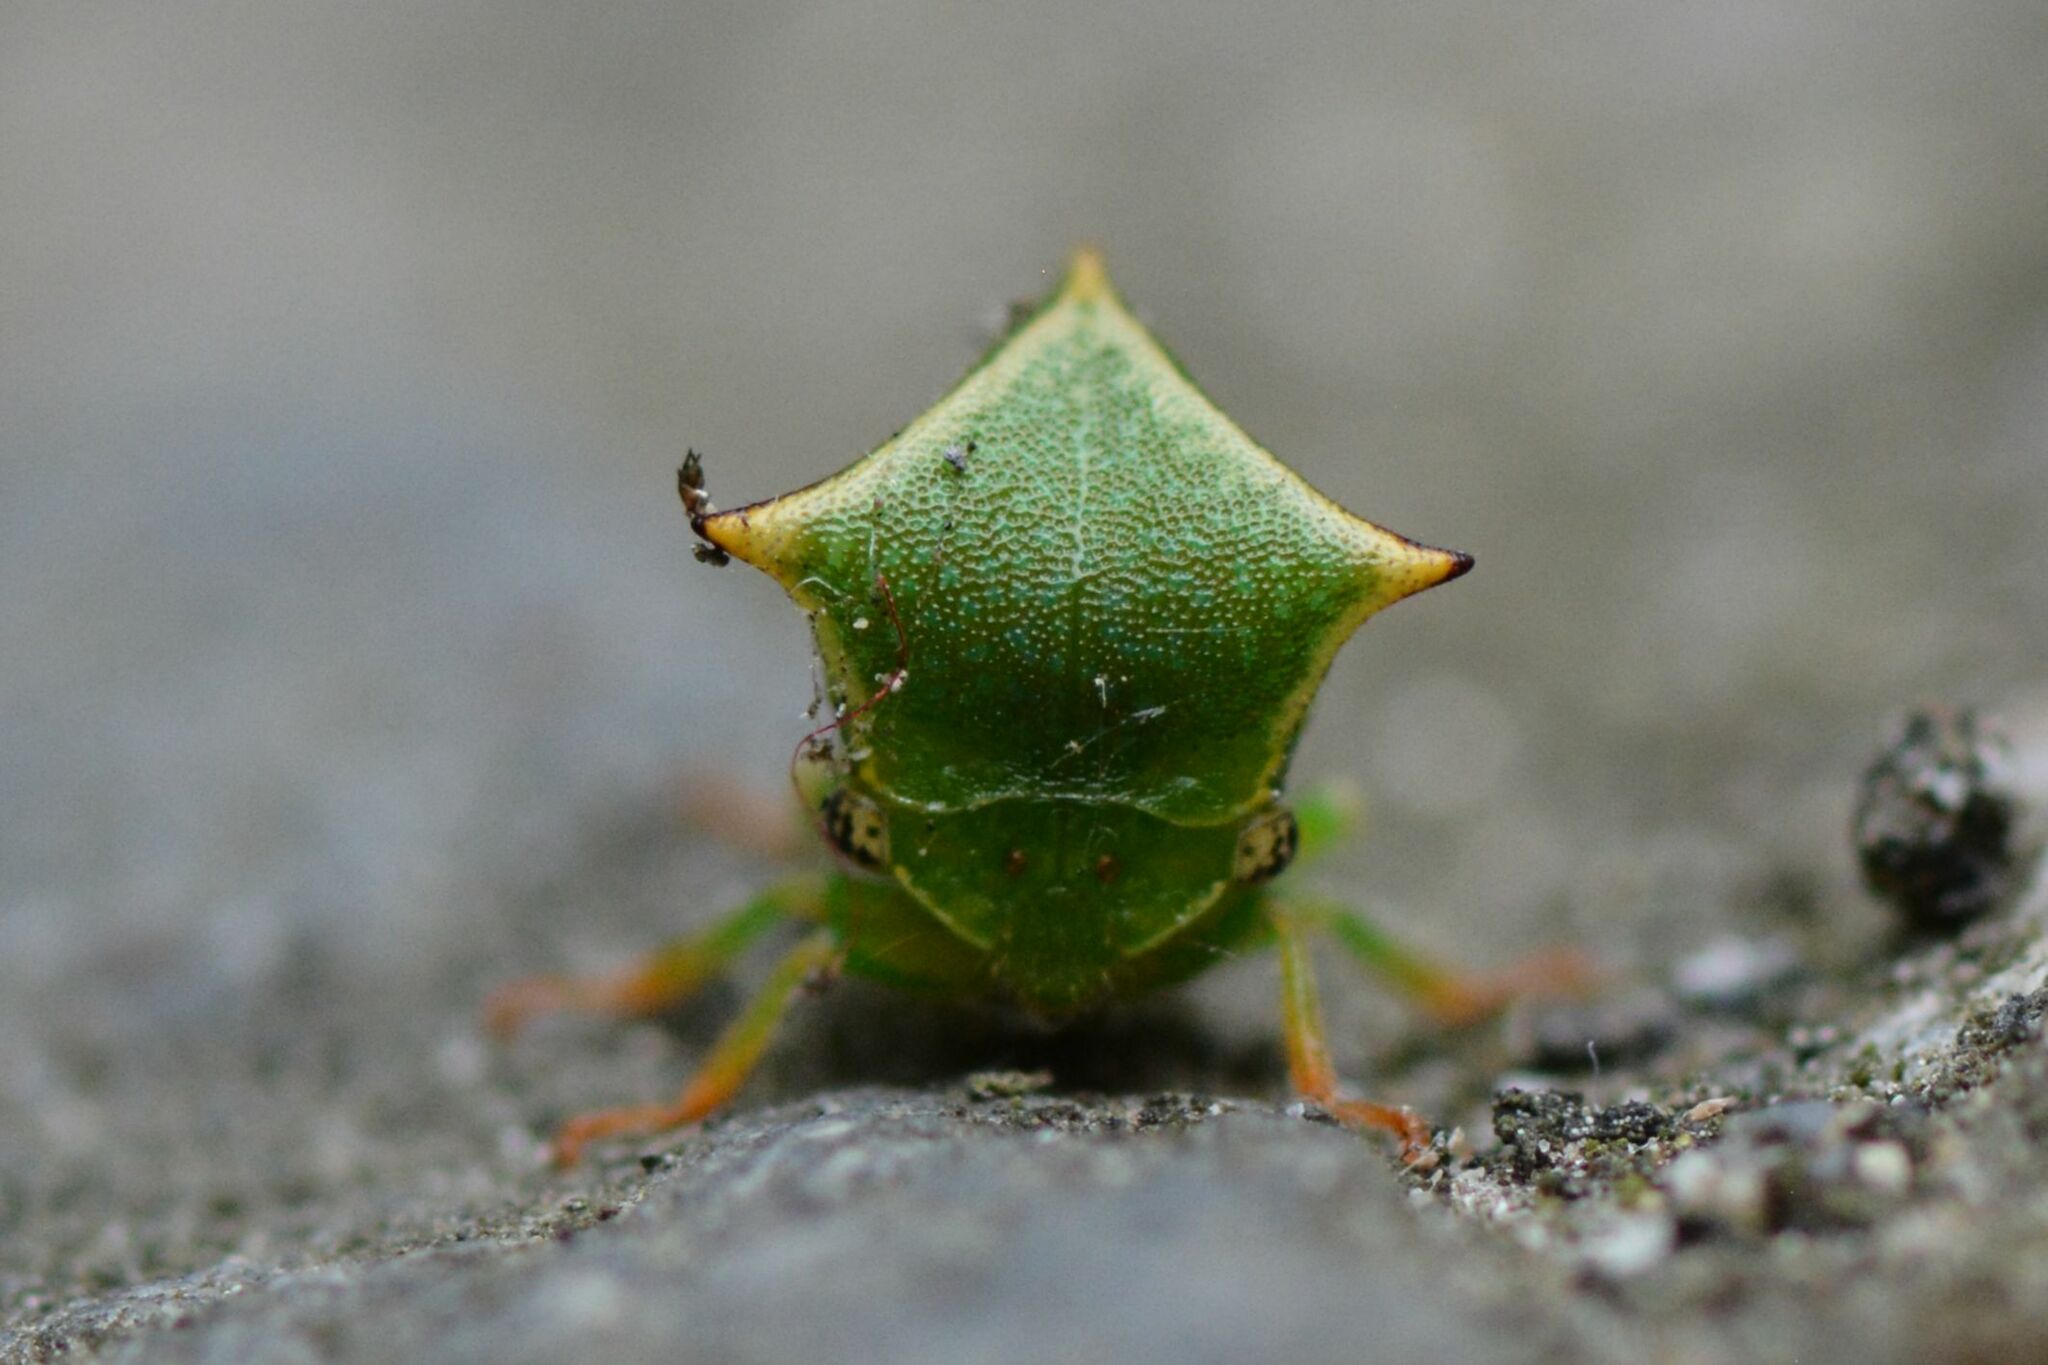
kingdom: Animalia
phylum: Arthropoda
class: Insecta
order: Hemiptera
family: Membracidae
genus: Stictocephala
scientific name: Stictocephala bisonia
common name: American buffalo treehopper
